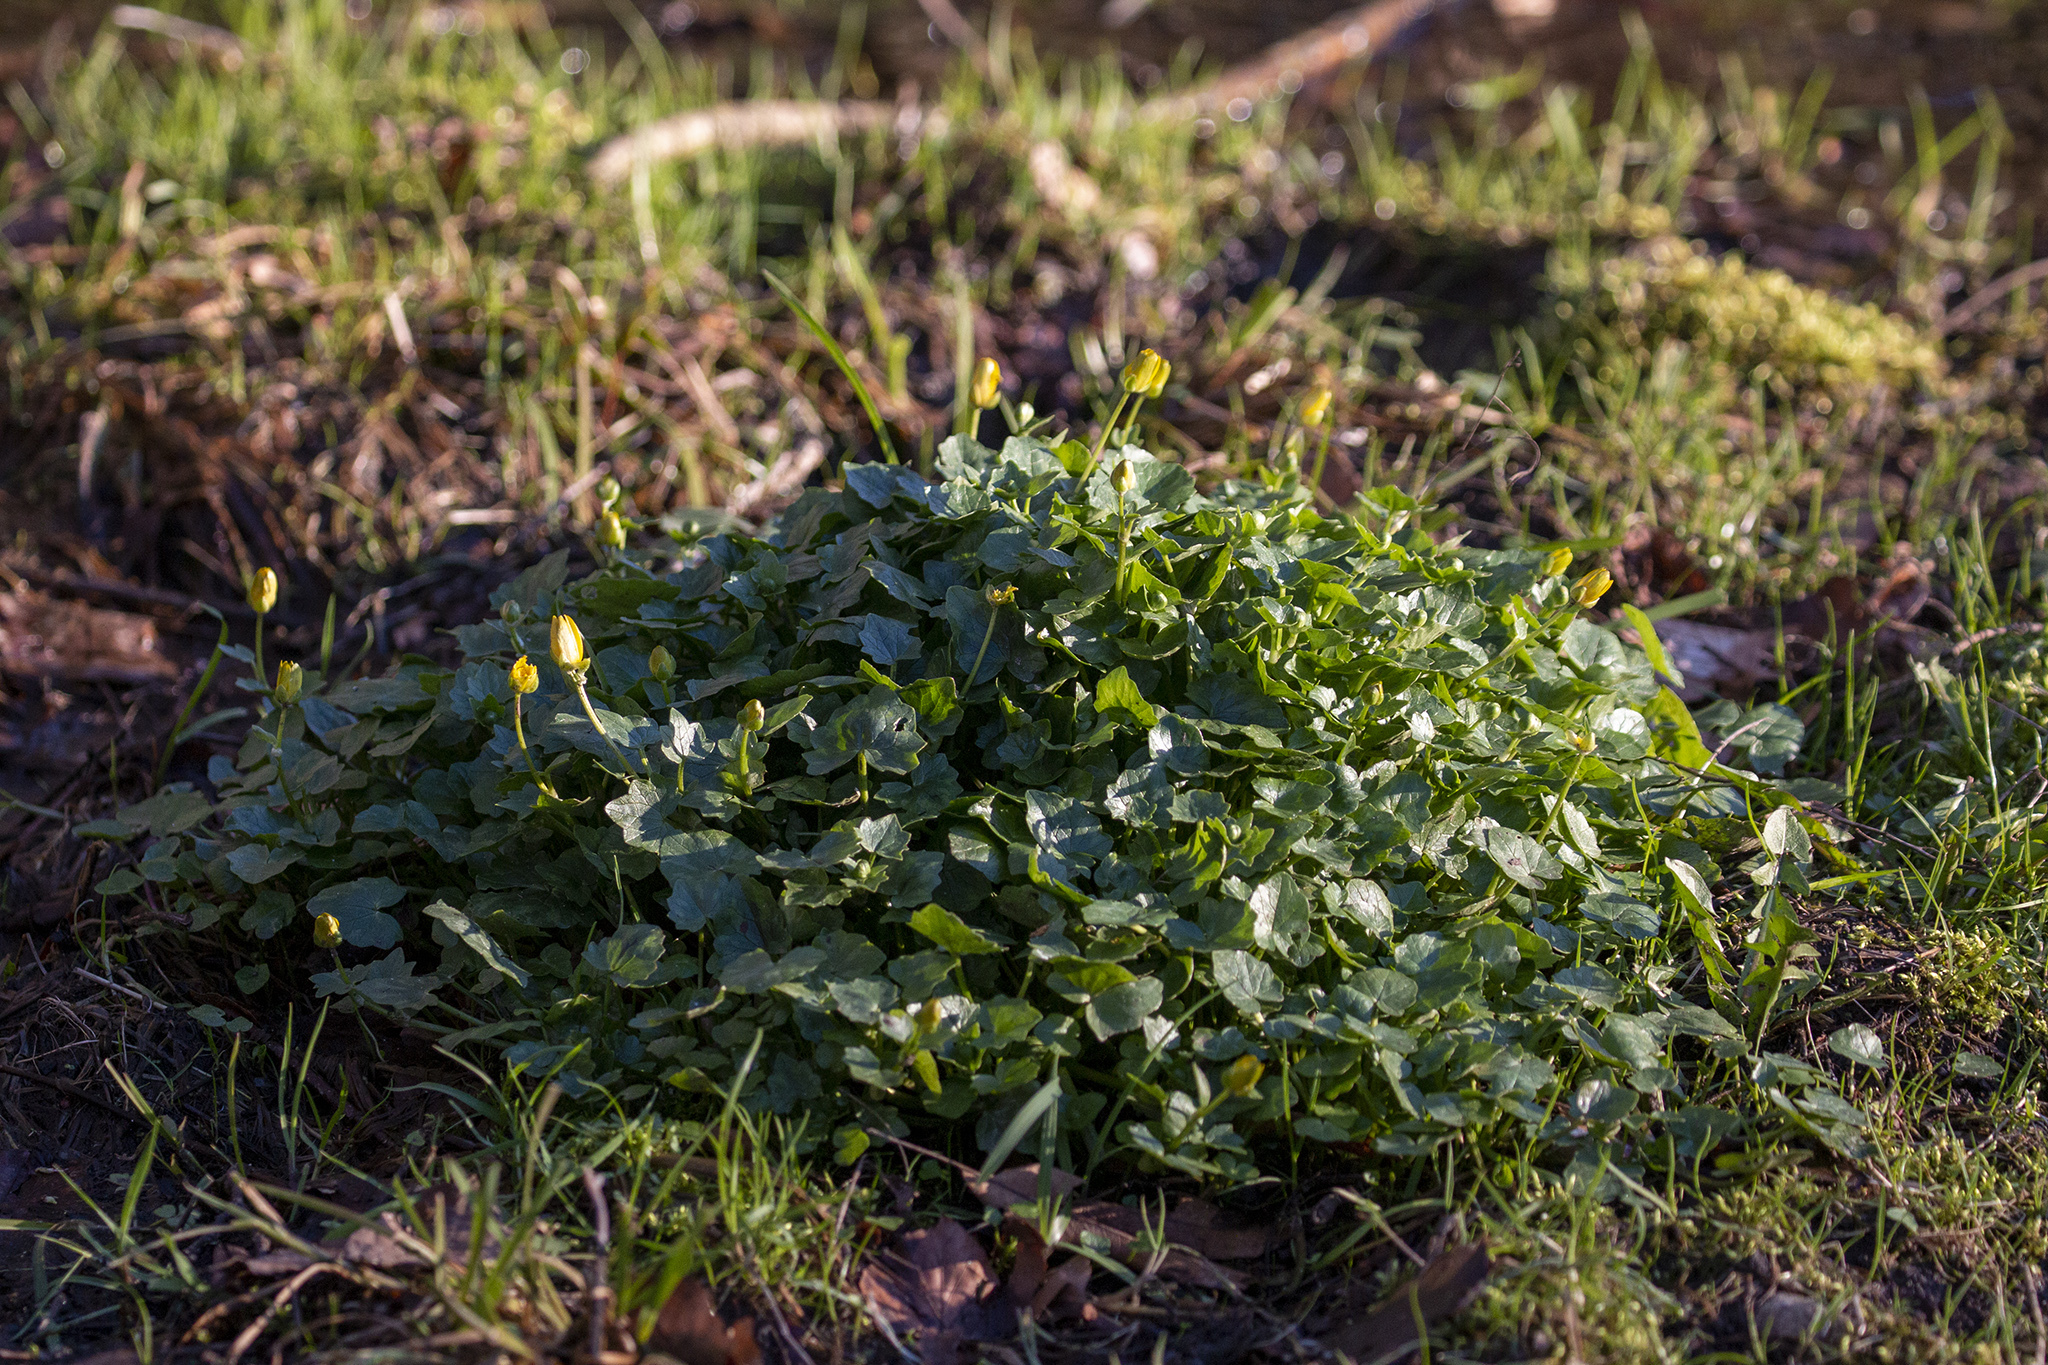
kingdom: Plantae
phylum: Tracheophyta
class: Magnoliopsida
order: Ranunculales
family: Ranunculaceae
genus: Ficaria
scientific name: Ficaria verna
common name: Lesser celandine
